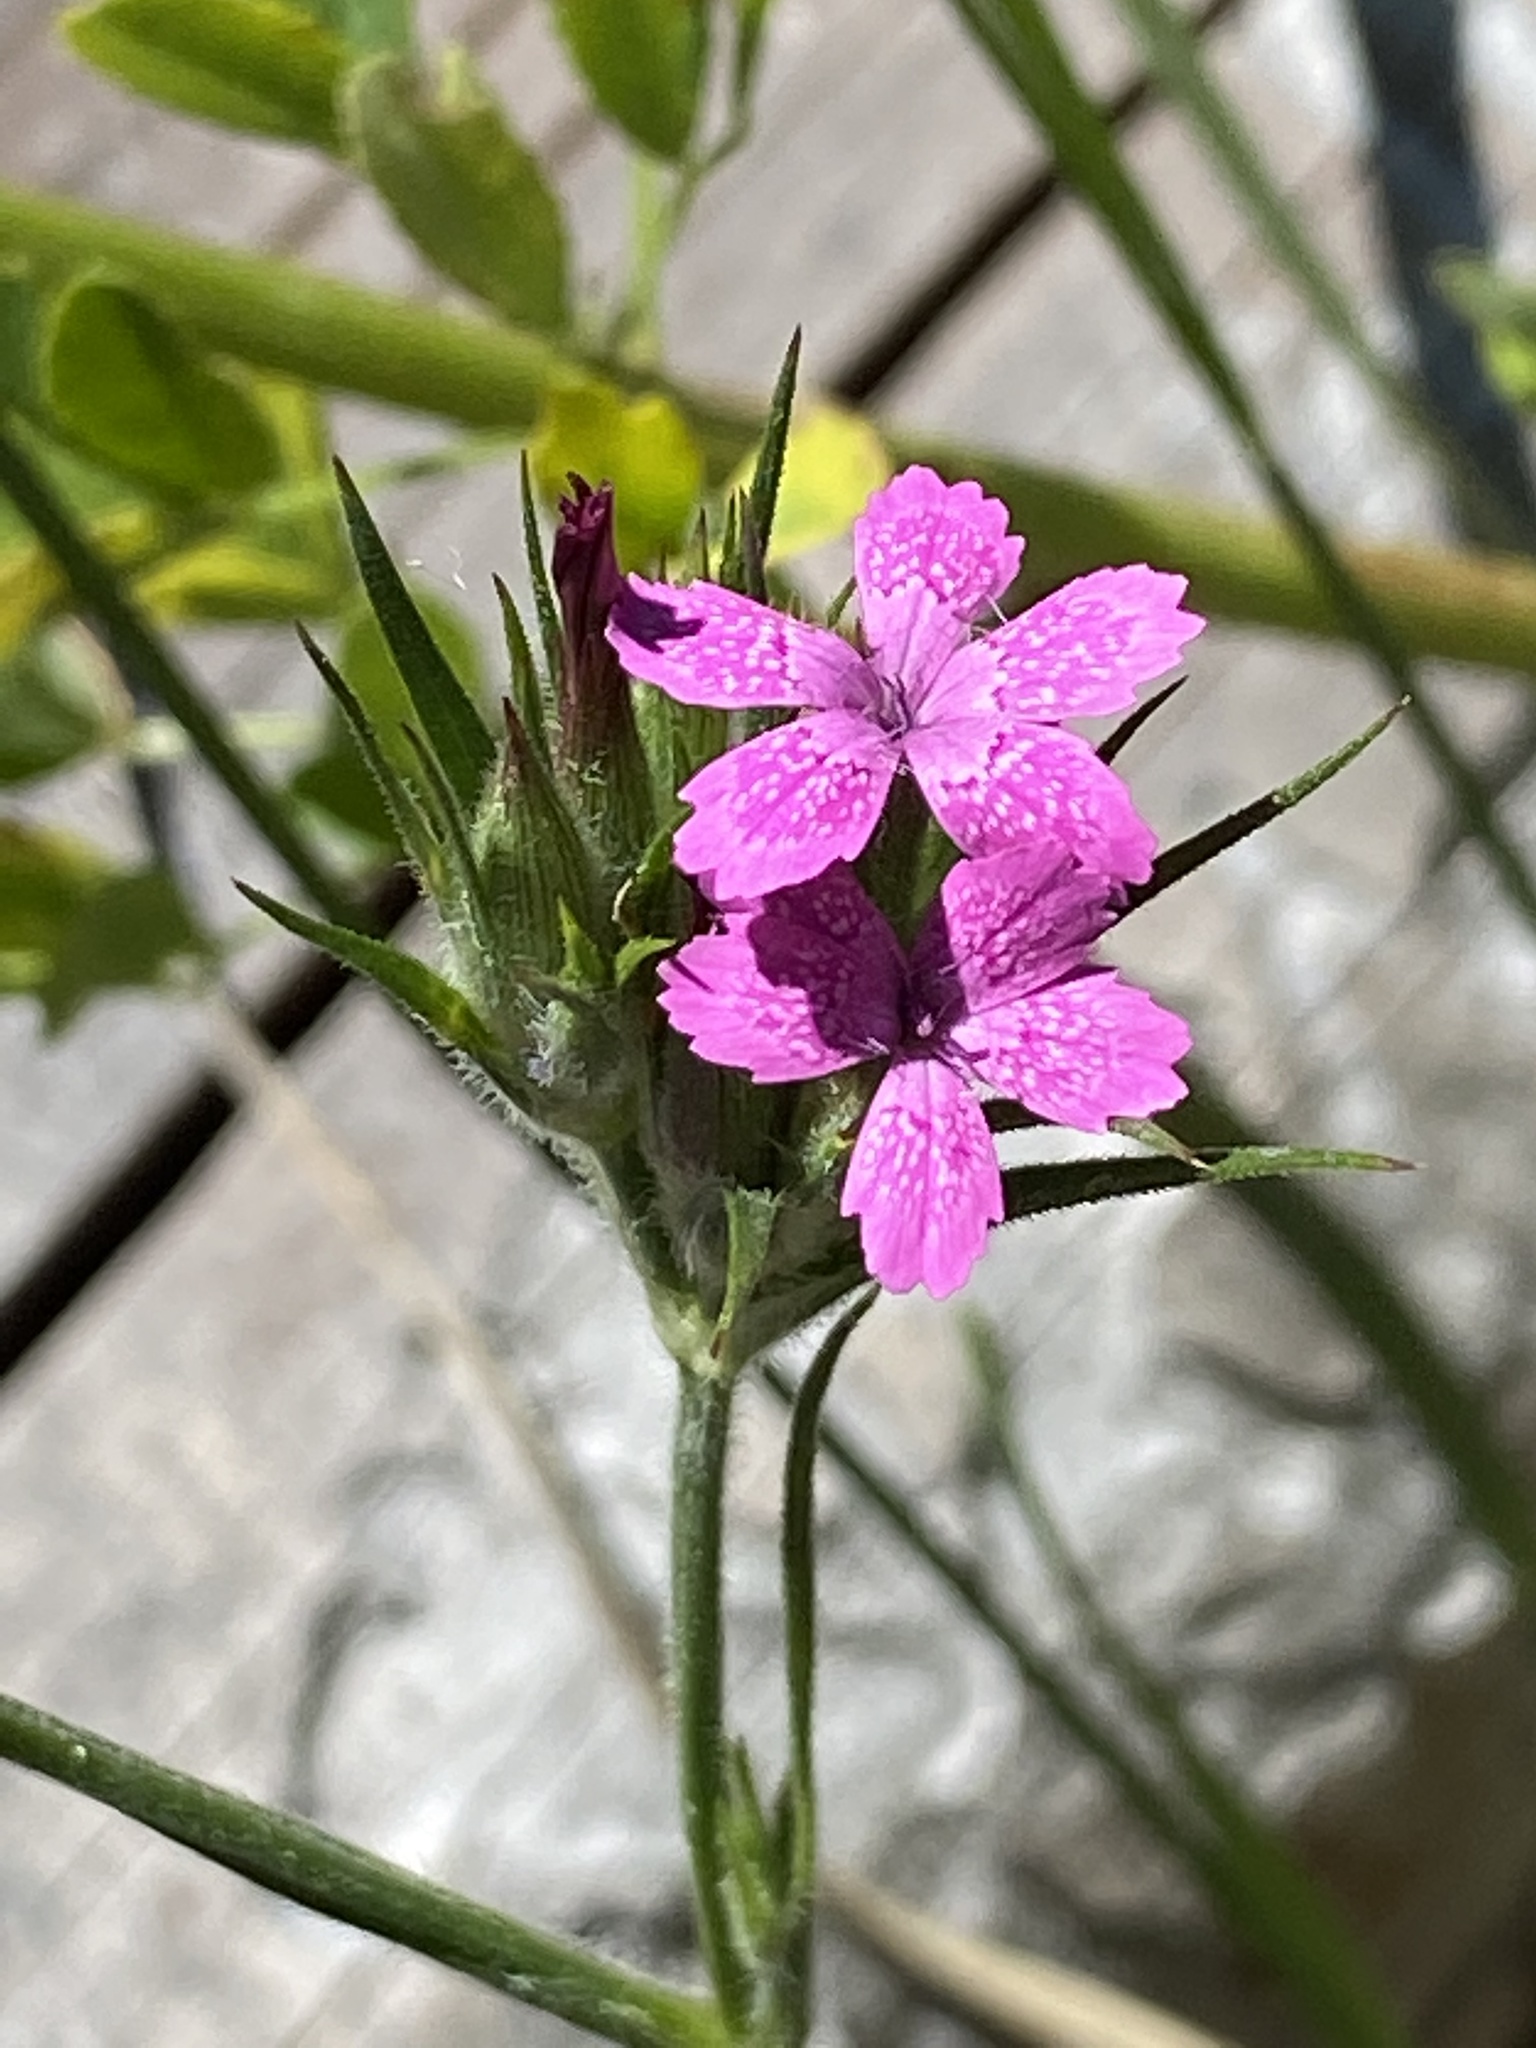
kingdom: Plantae
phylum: Tracheophyta
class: Magnoliopsida
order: Caryophyllales
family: Caryophyllaceae
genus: Dianthus
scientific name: Dianthus armeria
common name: Deptford pink
